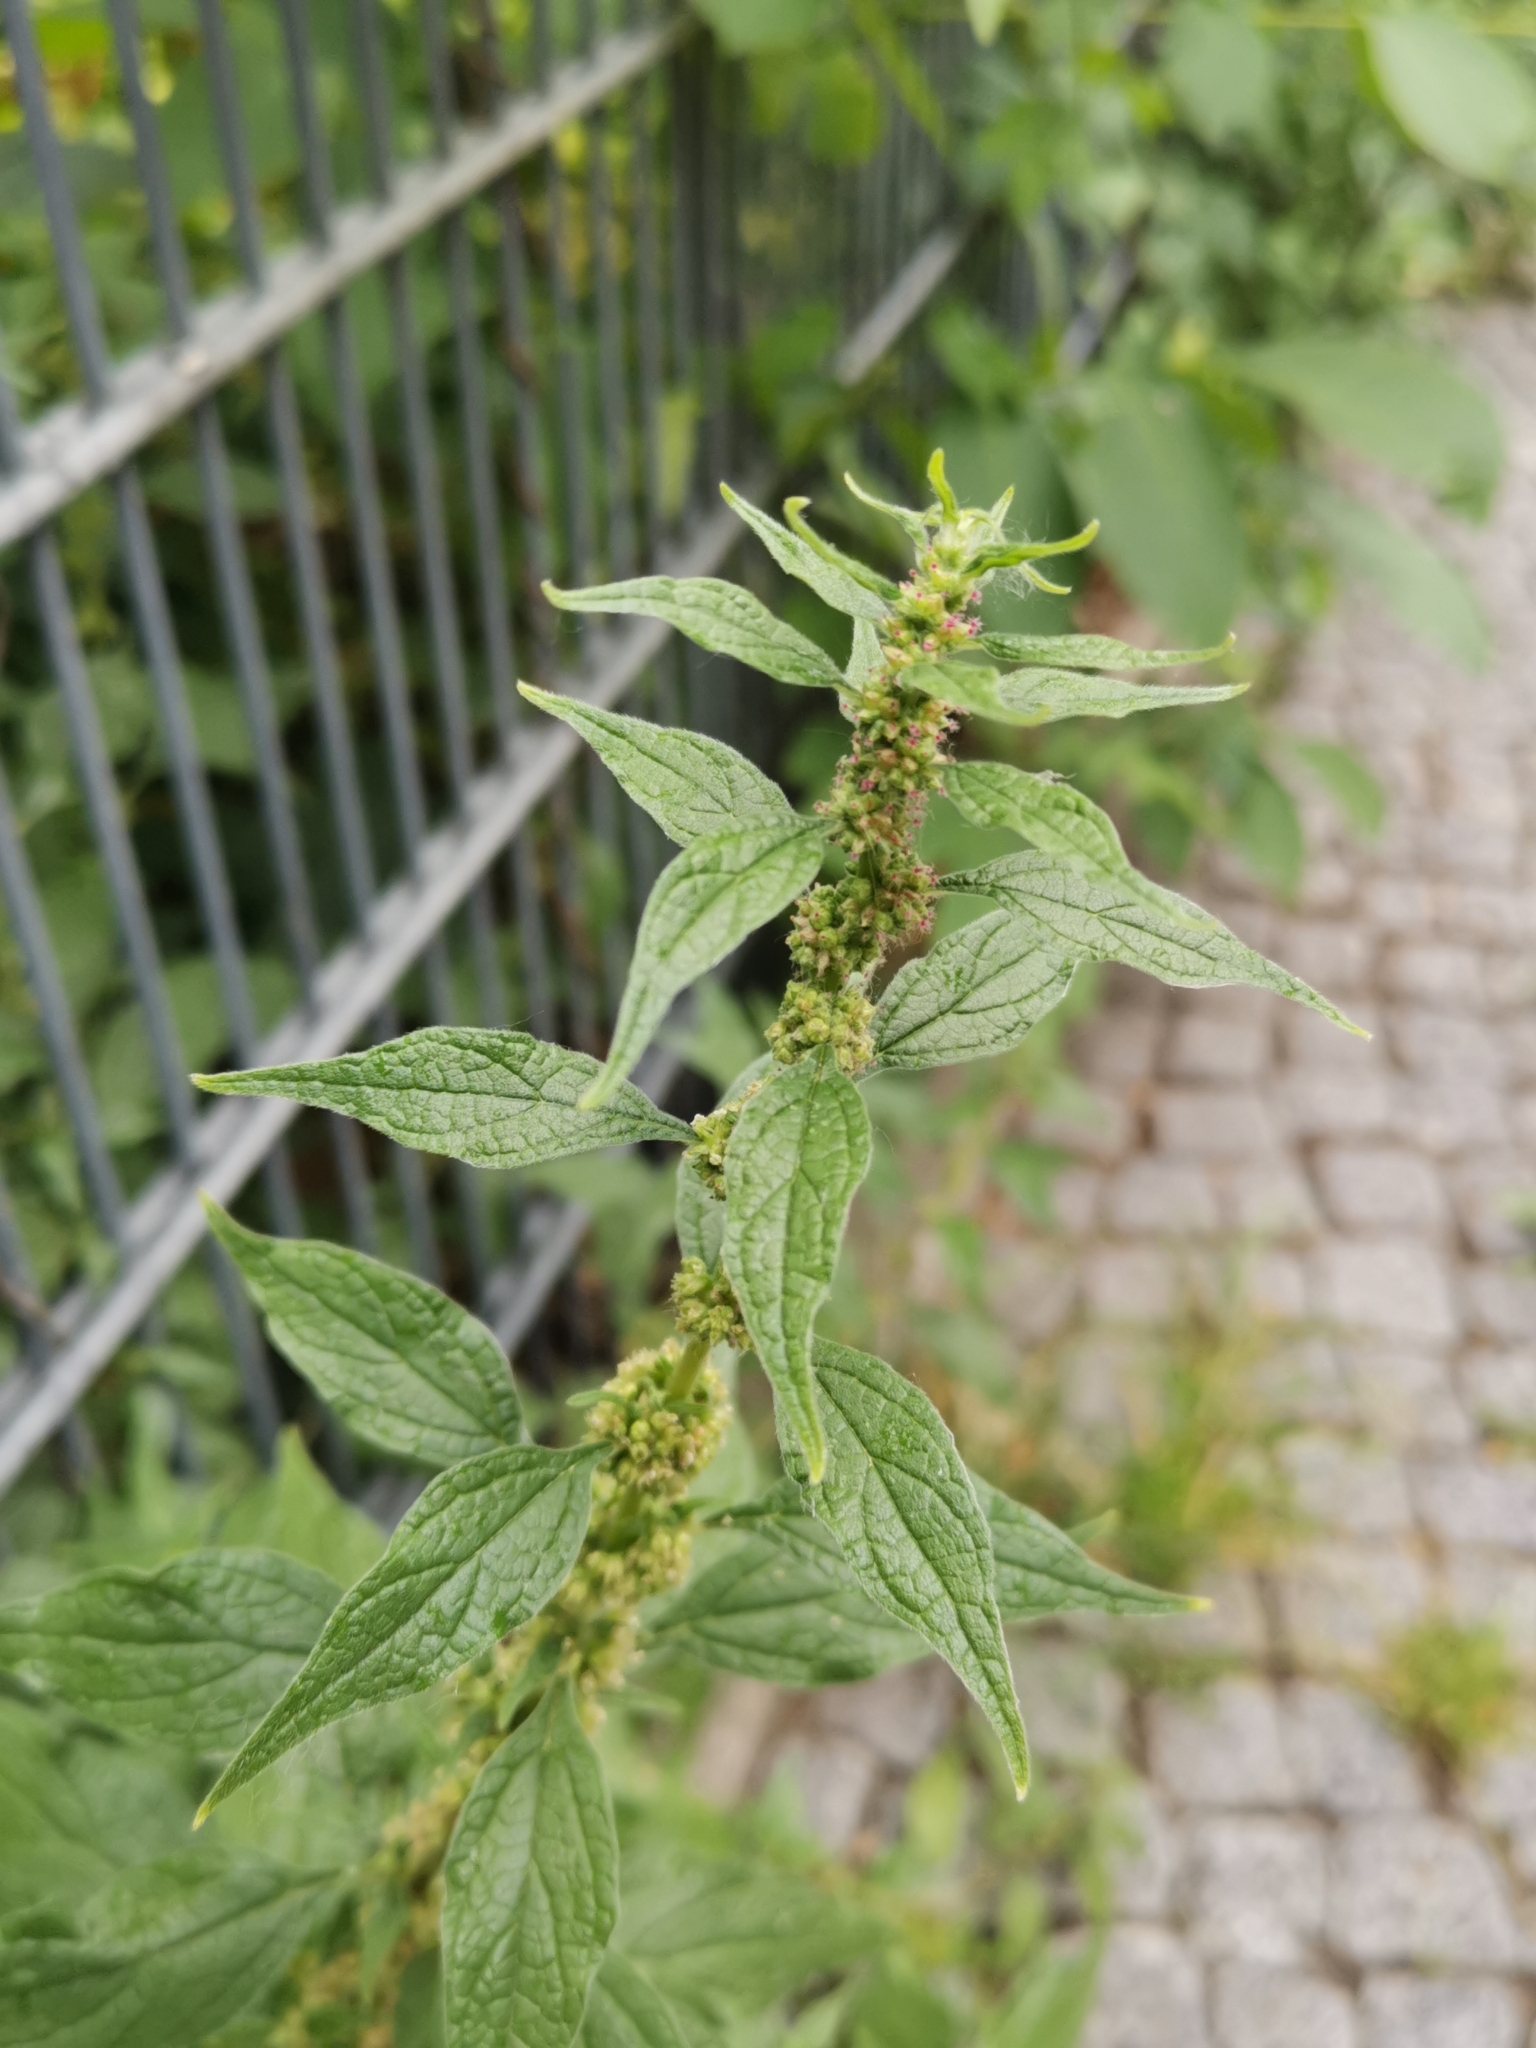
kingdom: Plantae
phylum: Tracheophyta
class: Magnoliopsida
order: Rosales
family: Urticaceae
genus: Parietaria
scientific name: Parietaria officinalis
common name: Eastern pellitory-of-the-wall
